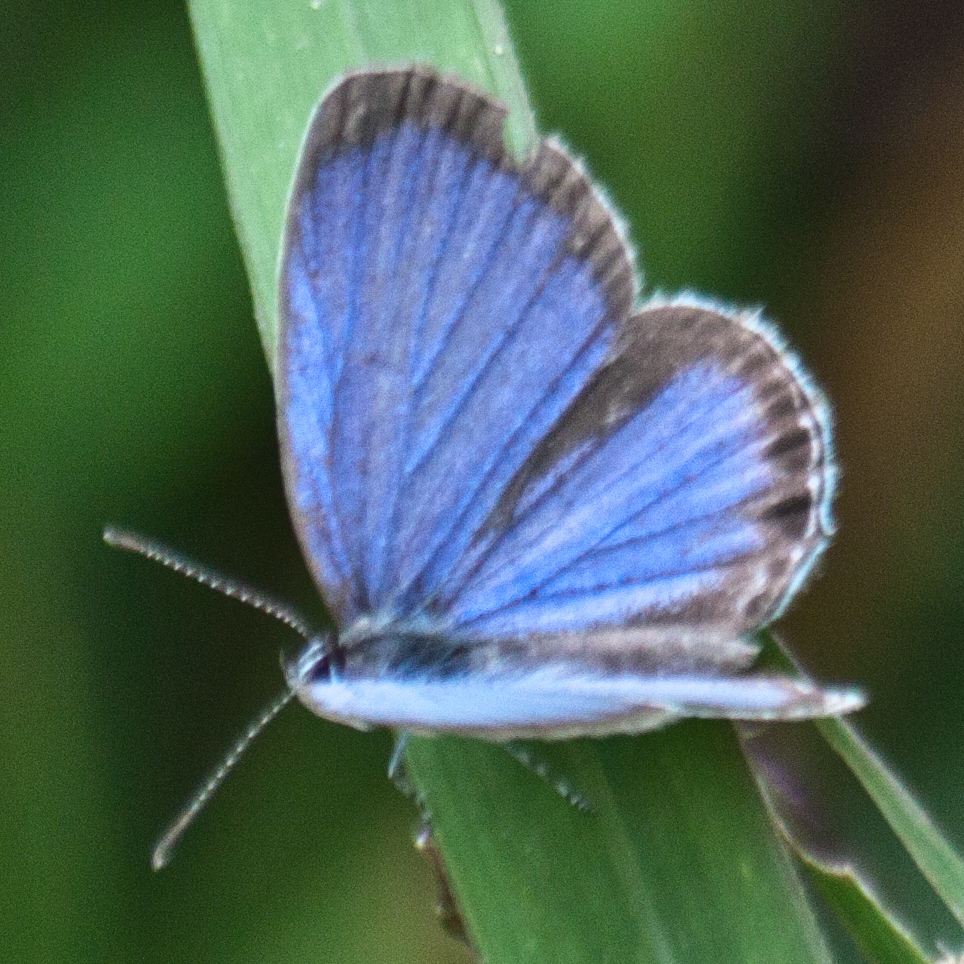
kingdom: Animalia
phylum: Arthropoda
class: Insecta
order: Lepidoptera
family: Lycaenidae
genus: Everes
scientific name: Everes lacturnus
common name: Orange-tipped pea-blue
